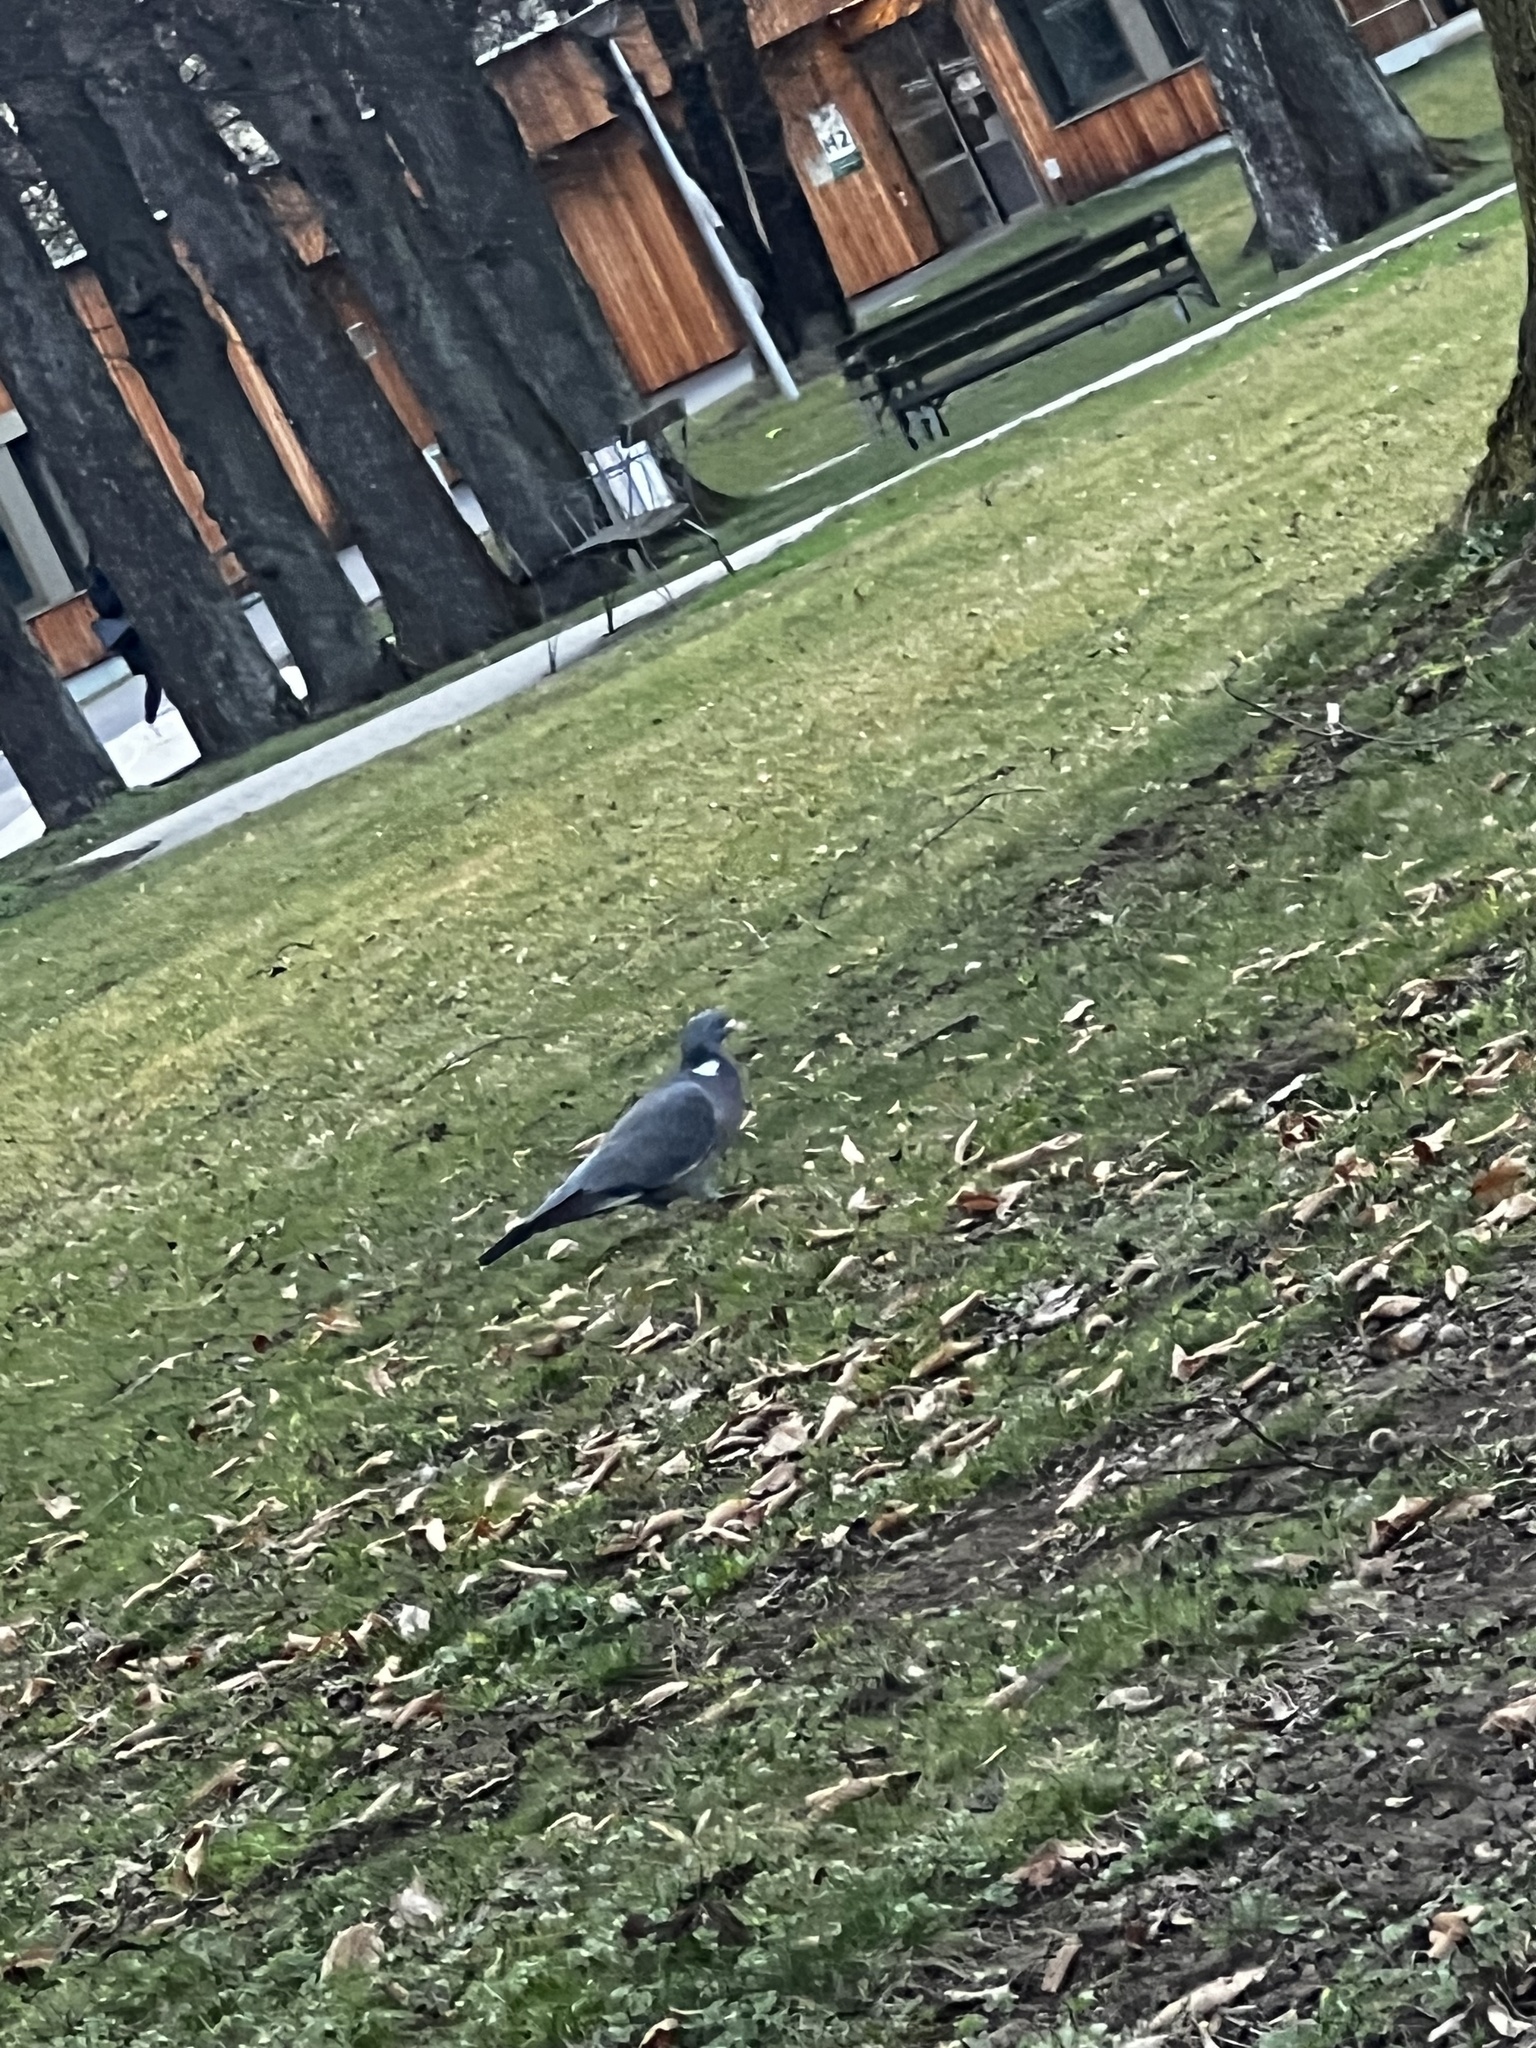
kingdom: Animalia
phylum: Chordata
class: Aves
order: Columbiformes
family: Columbidae
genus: Columba
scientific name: Columba palumbus
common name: Common wood pigeon
